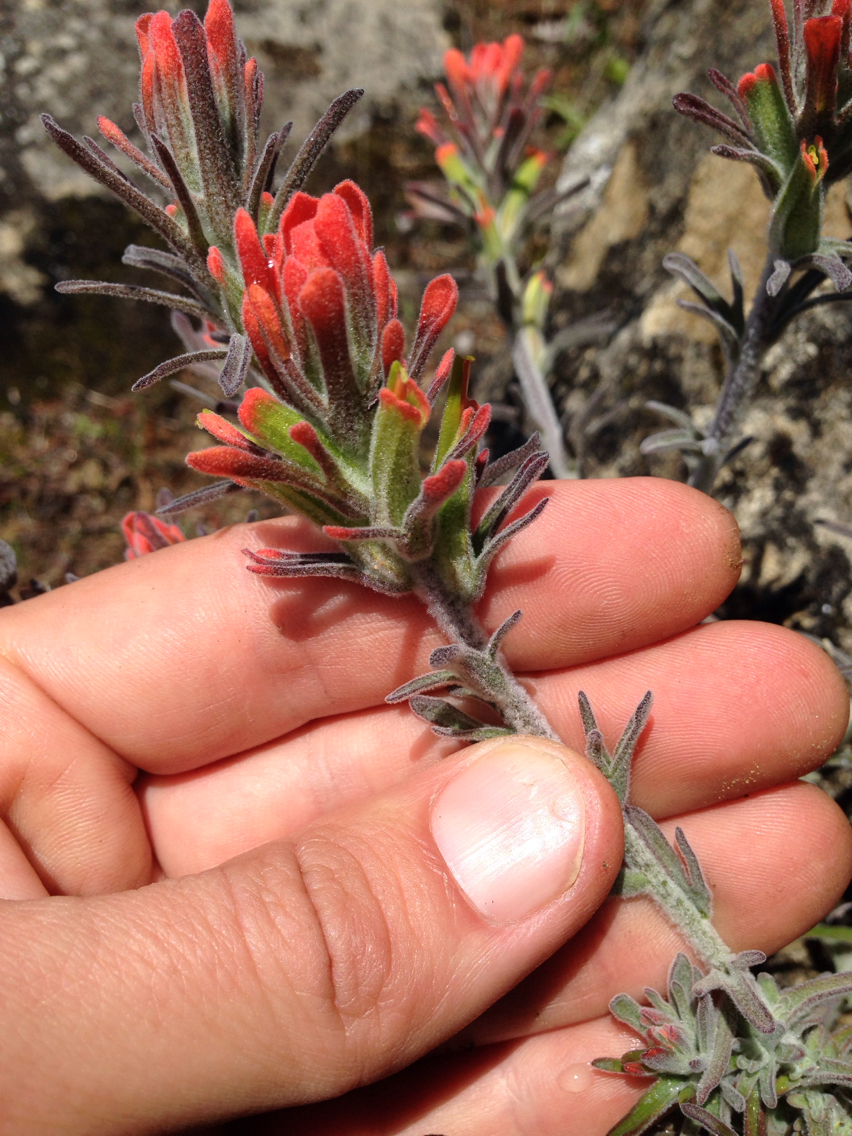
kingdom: Plantae
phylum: Tracheophyta
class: Magnoliopsida
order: Lamiales
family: Orobanchaceae
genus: Castilleja
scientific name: Castilleja foliolosa
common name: Woolly indian paintbrush
